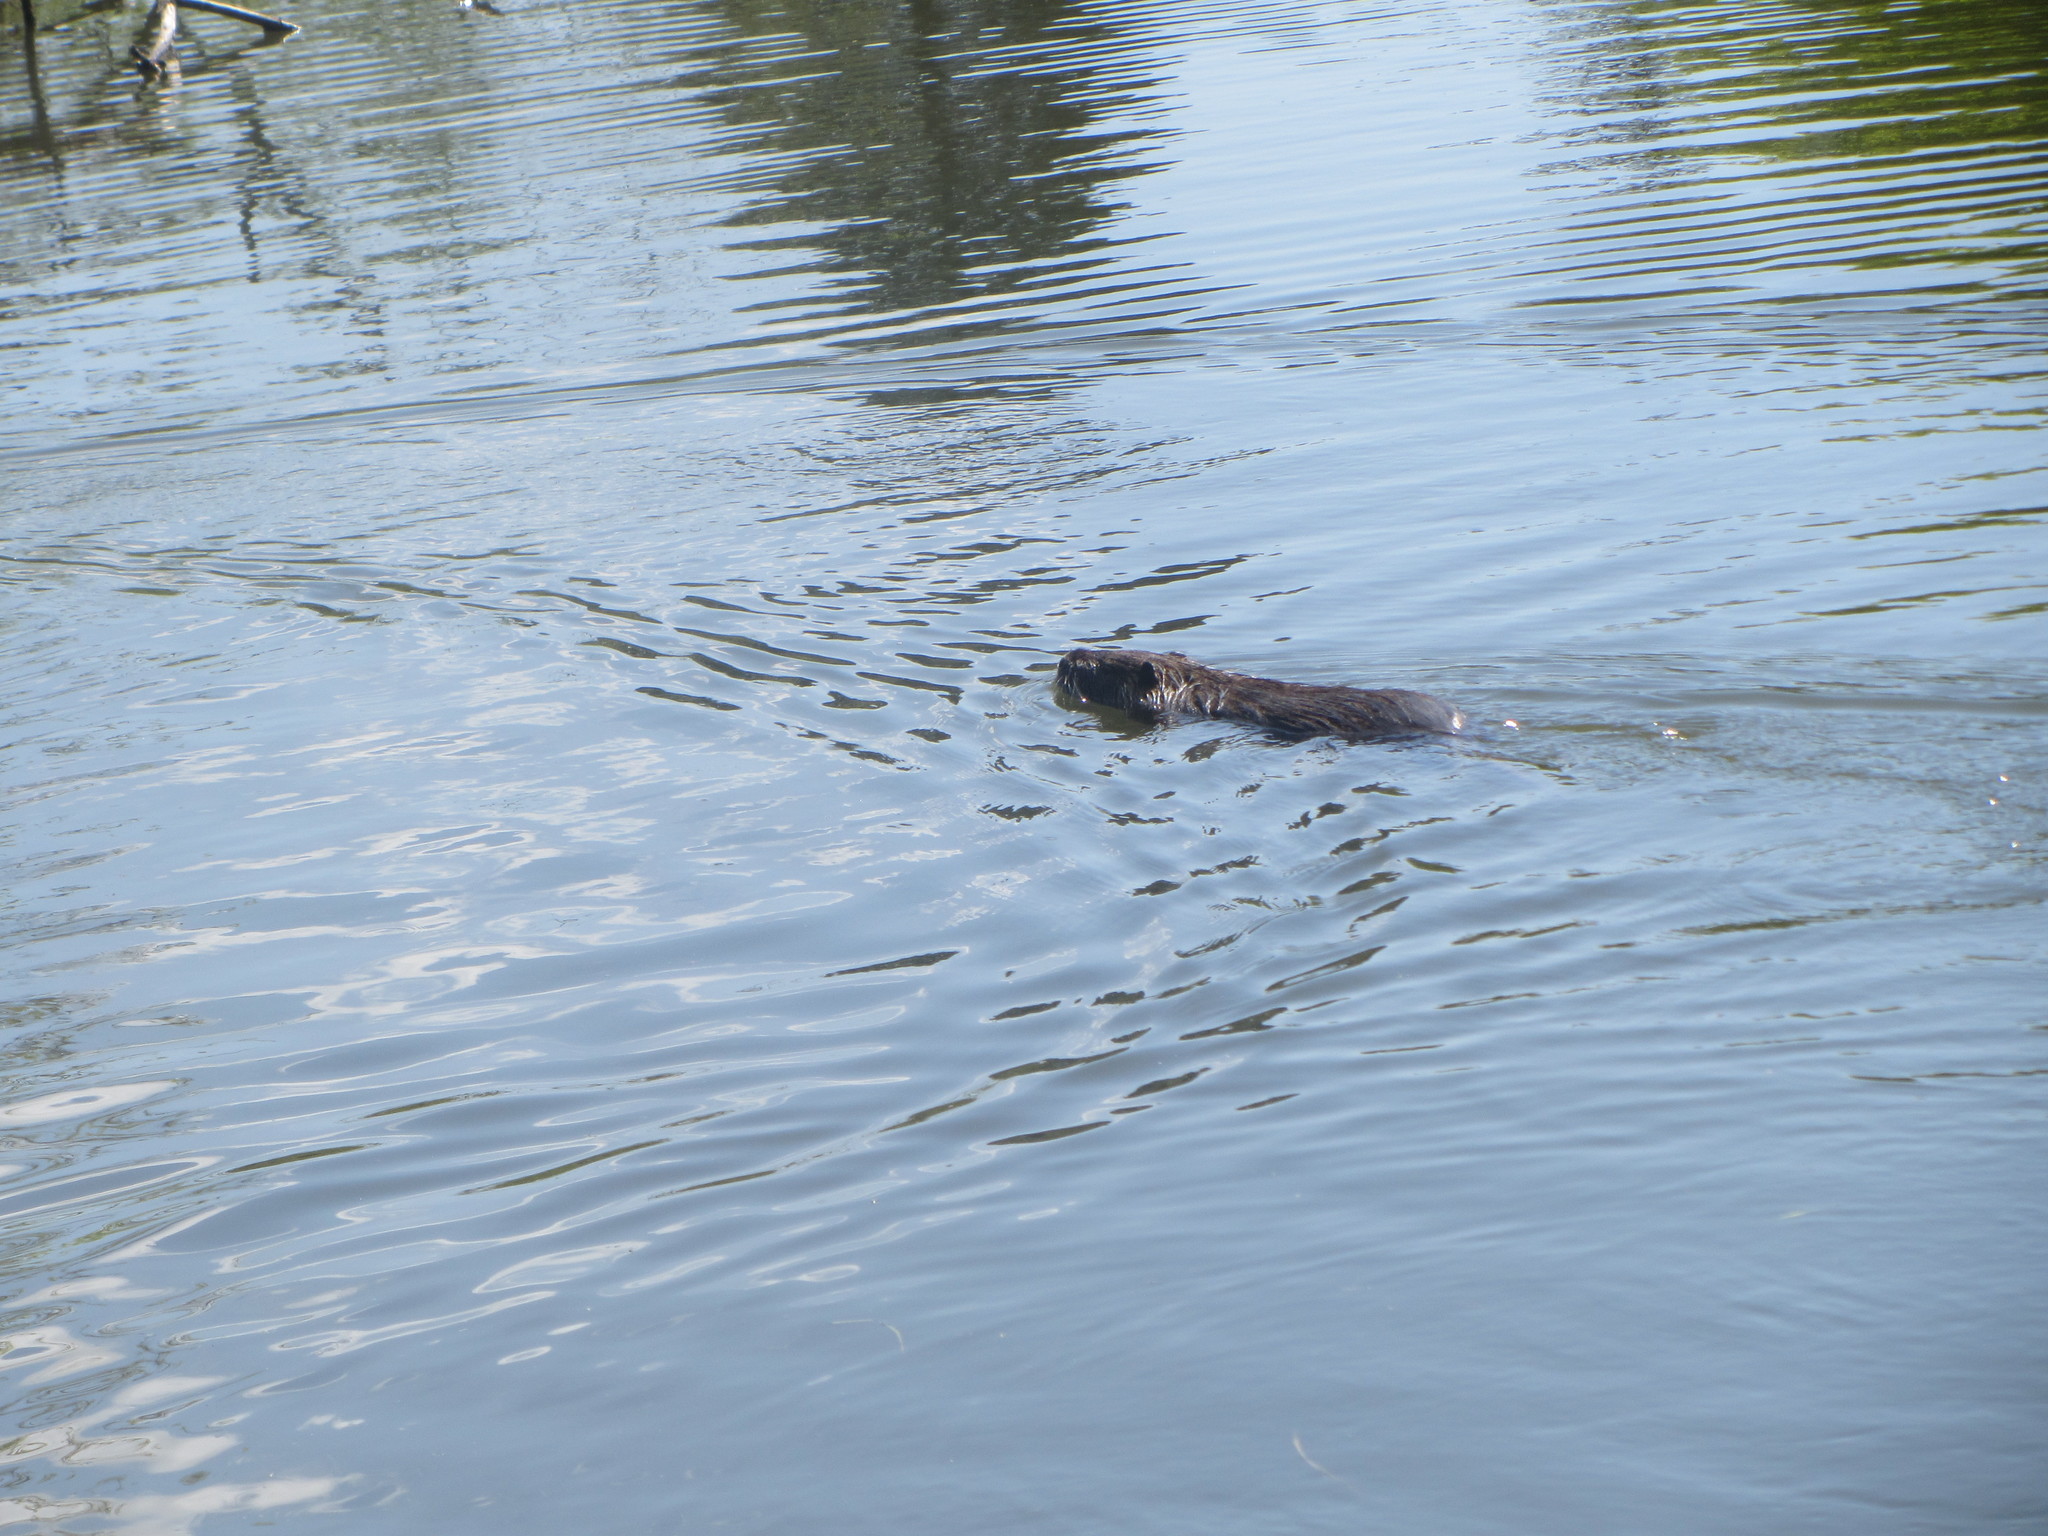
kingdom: Animalia
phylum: Chordata
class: Mammalia
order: Rodentia
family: Myocastoridae
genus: Myocastor
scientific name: Myocastor coypus
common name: Coypu
